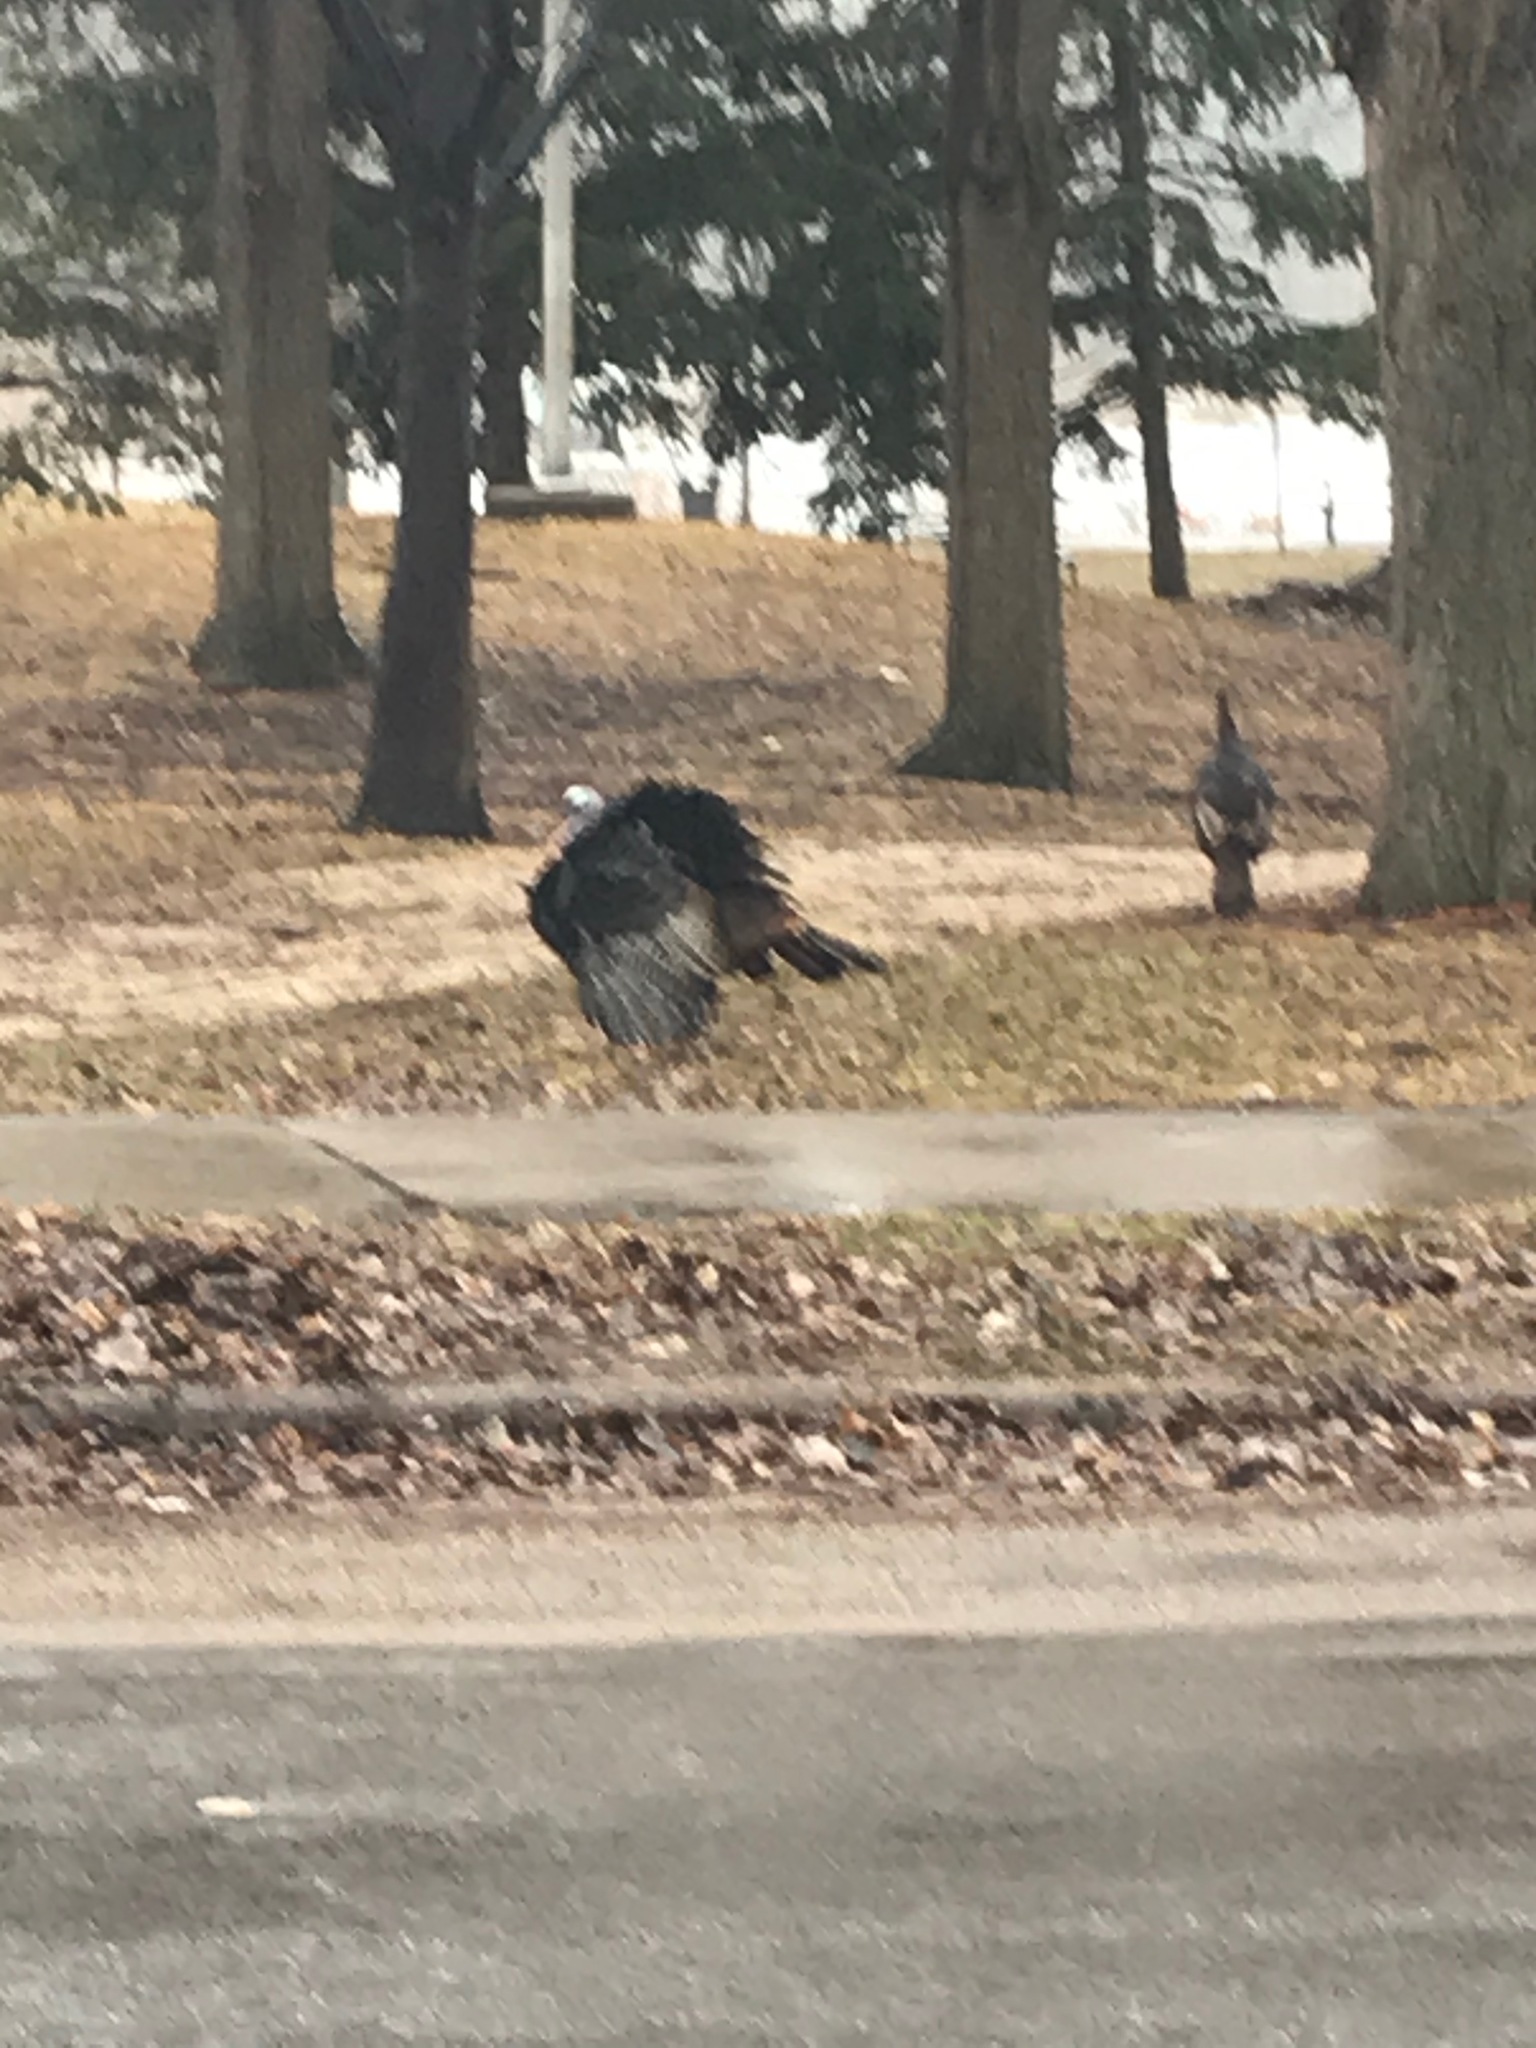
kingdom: Animalia
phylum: Chordata
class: Aves
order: Galliformes
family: Phasianidae
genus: Meleagris
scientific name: Meleagris gallopavo
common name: Wild turkey
